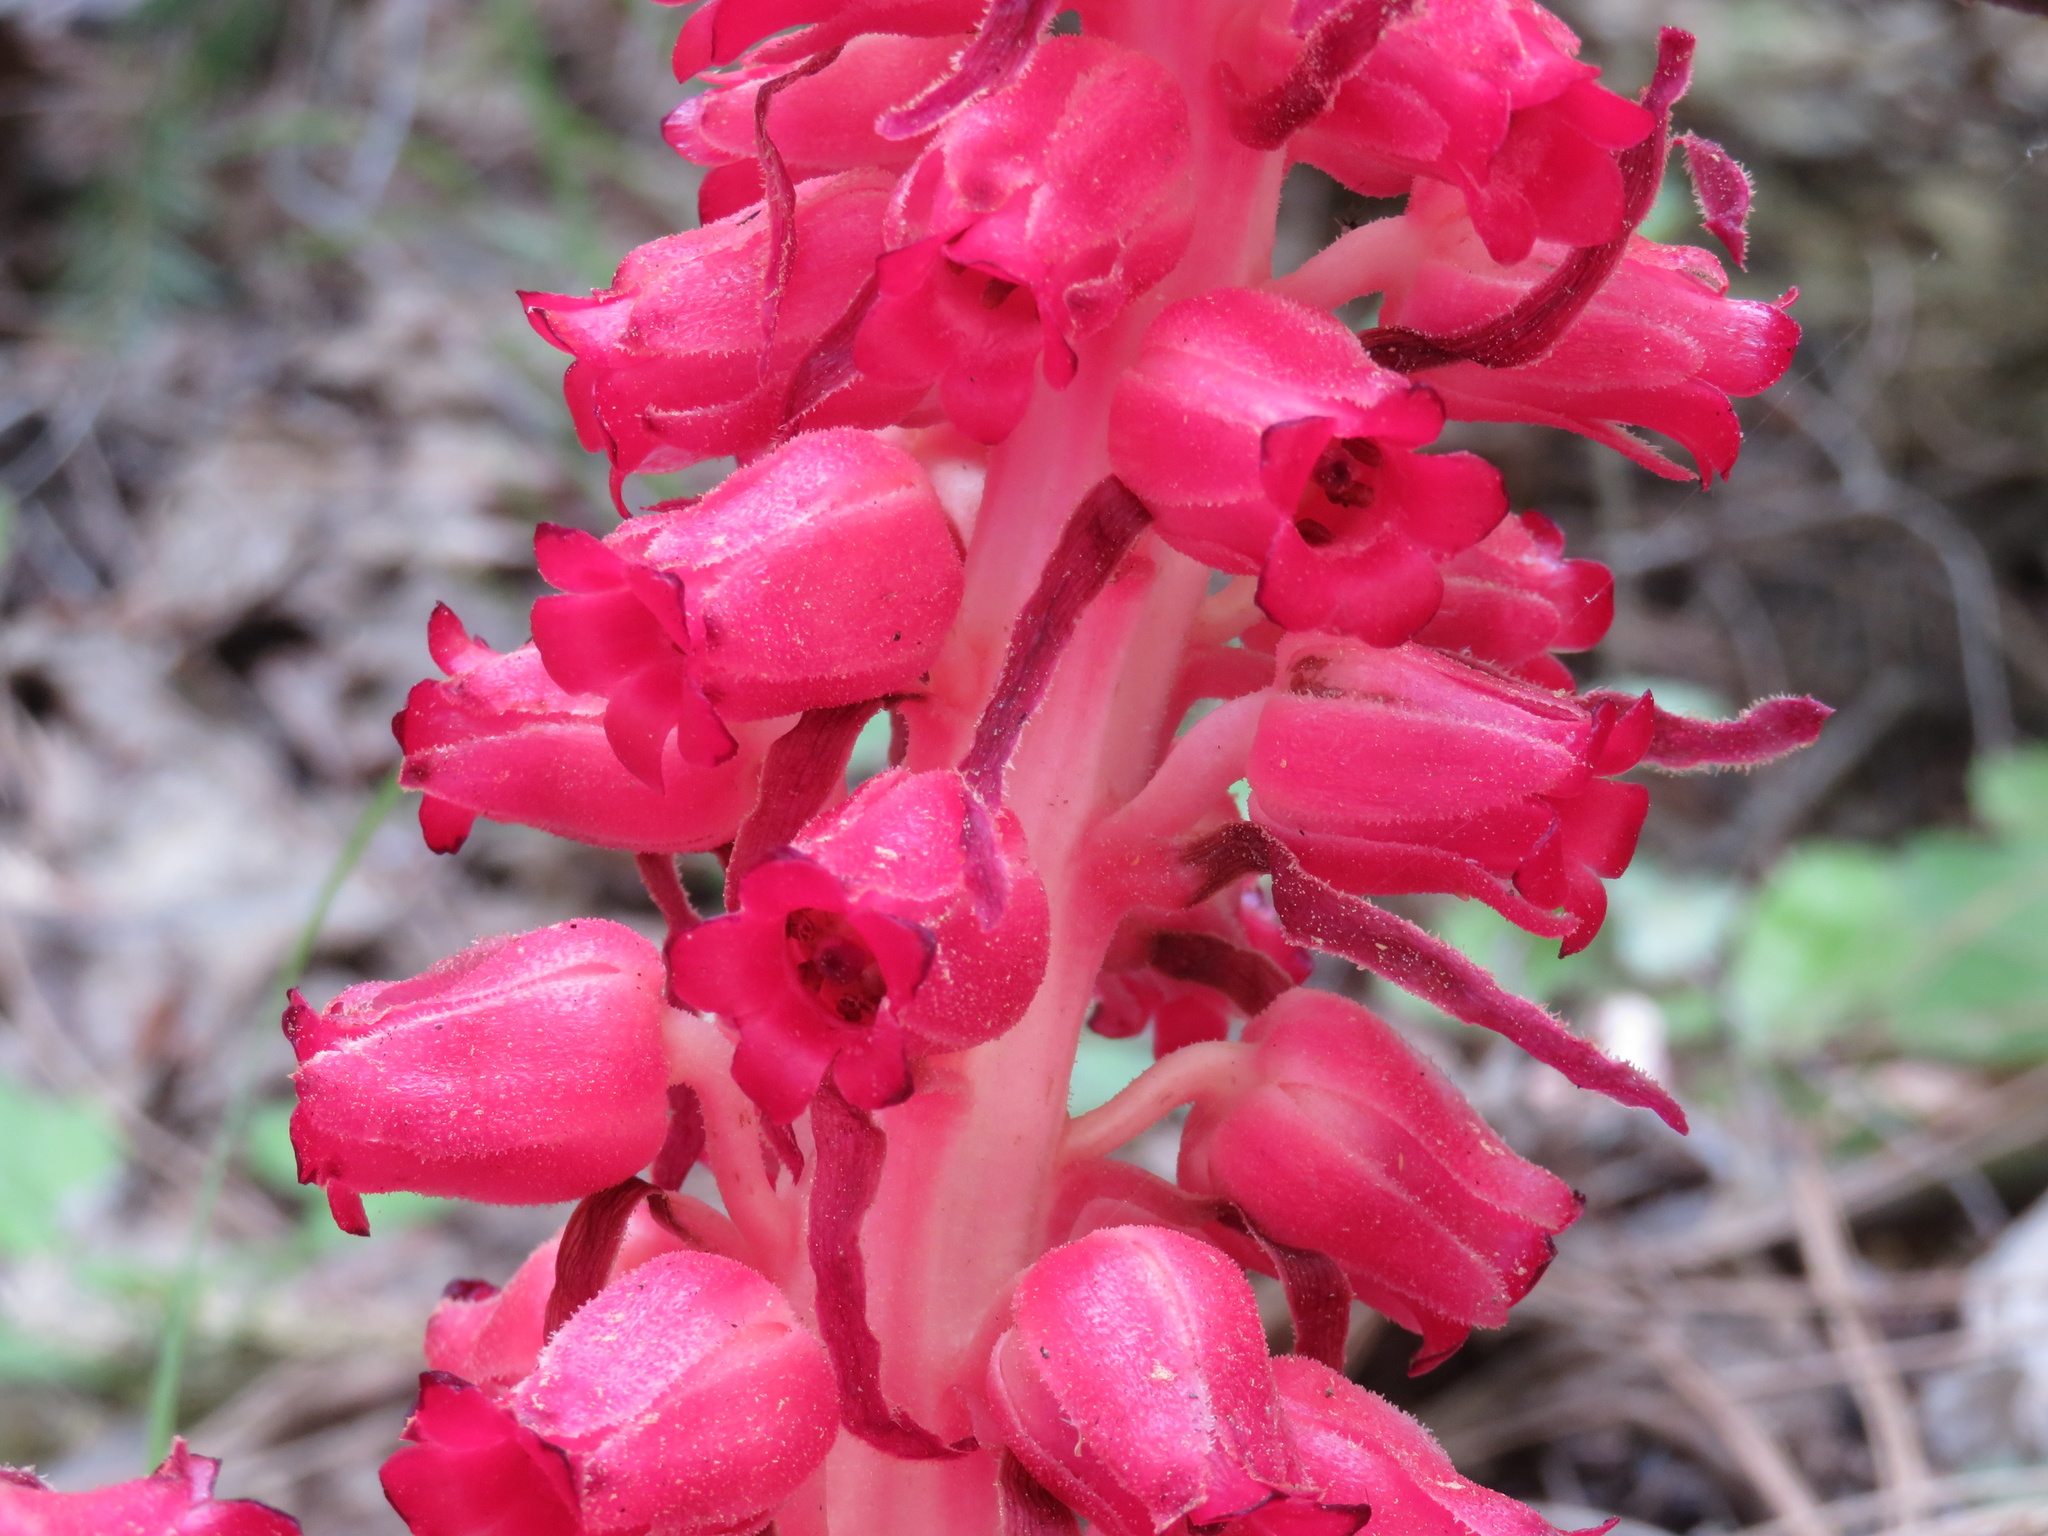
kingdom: Plantae
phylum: Tracheophyta
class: Magnoliopsida
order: Ericales
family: Ericaceae
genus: Sarcodes
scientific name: Sarcodes sanguinea
